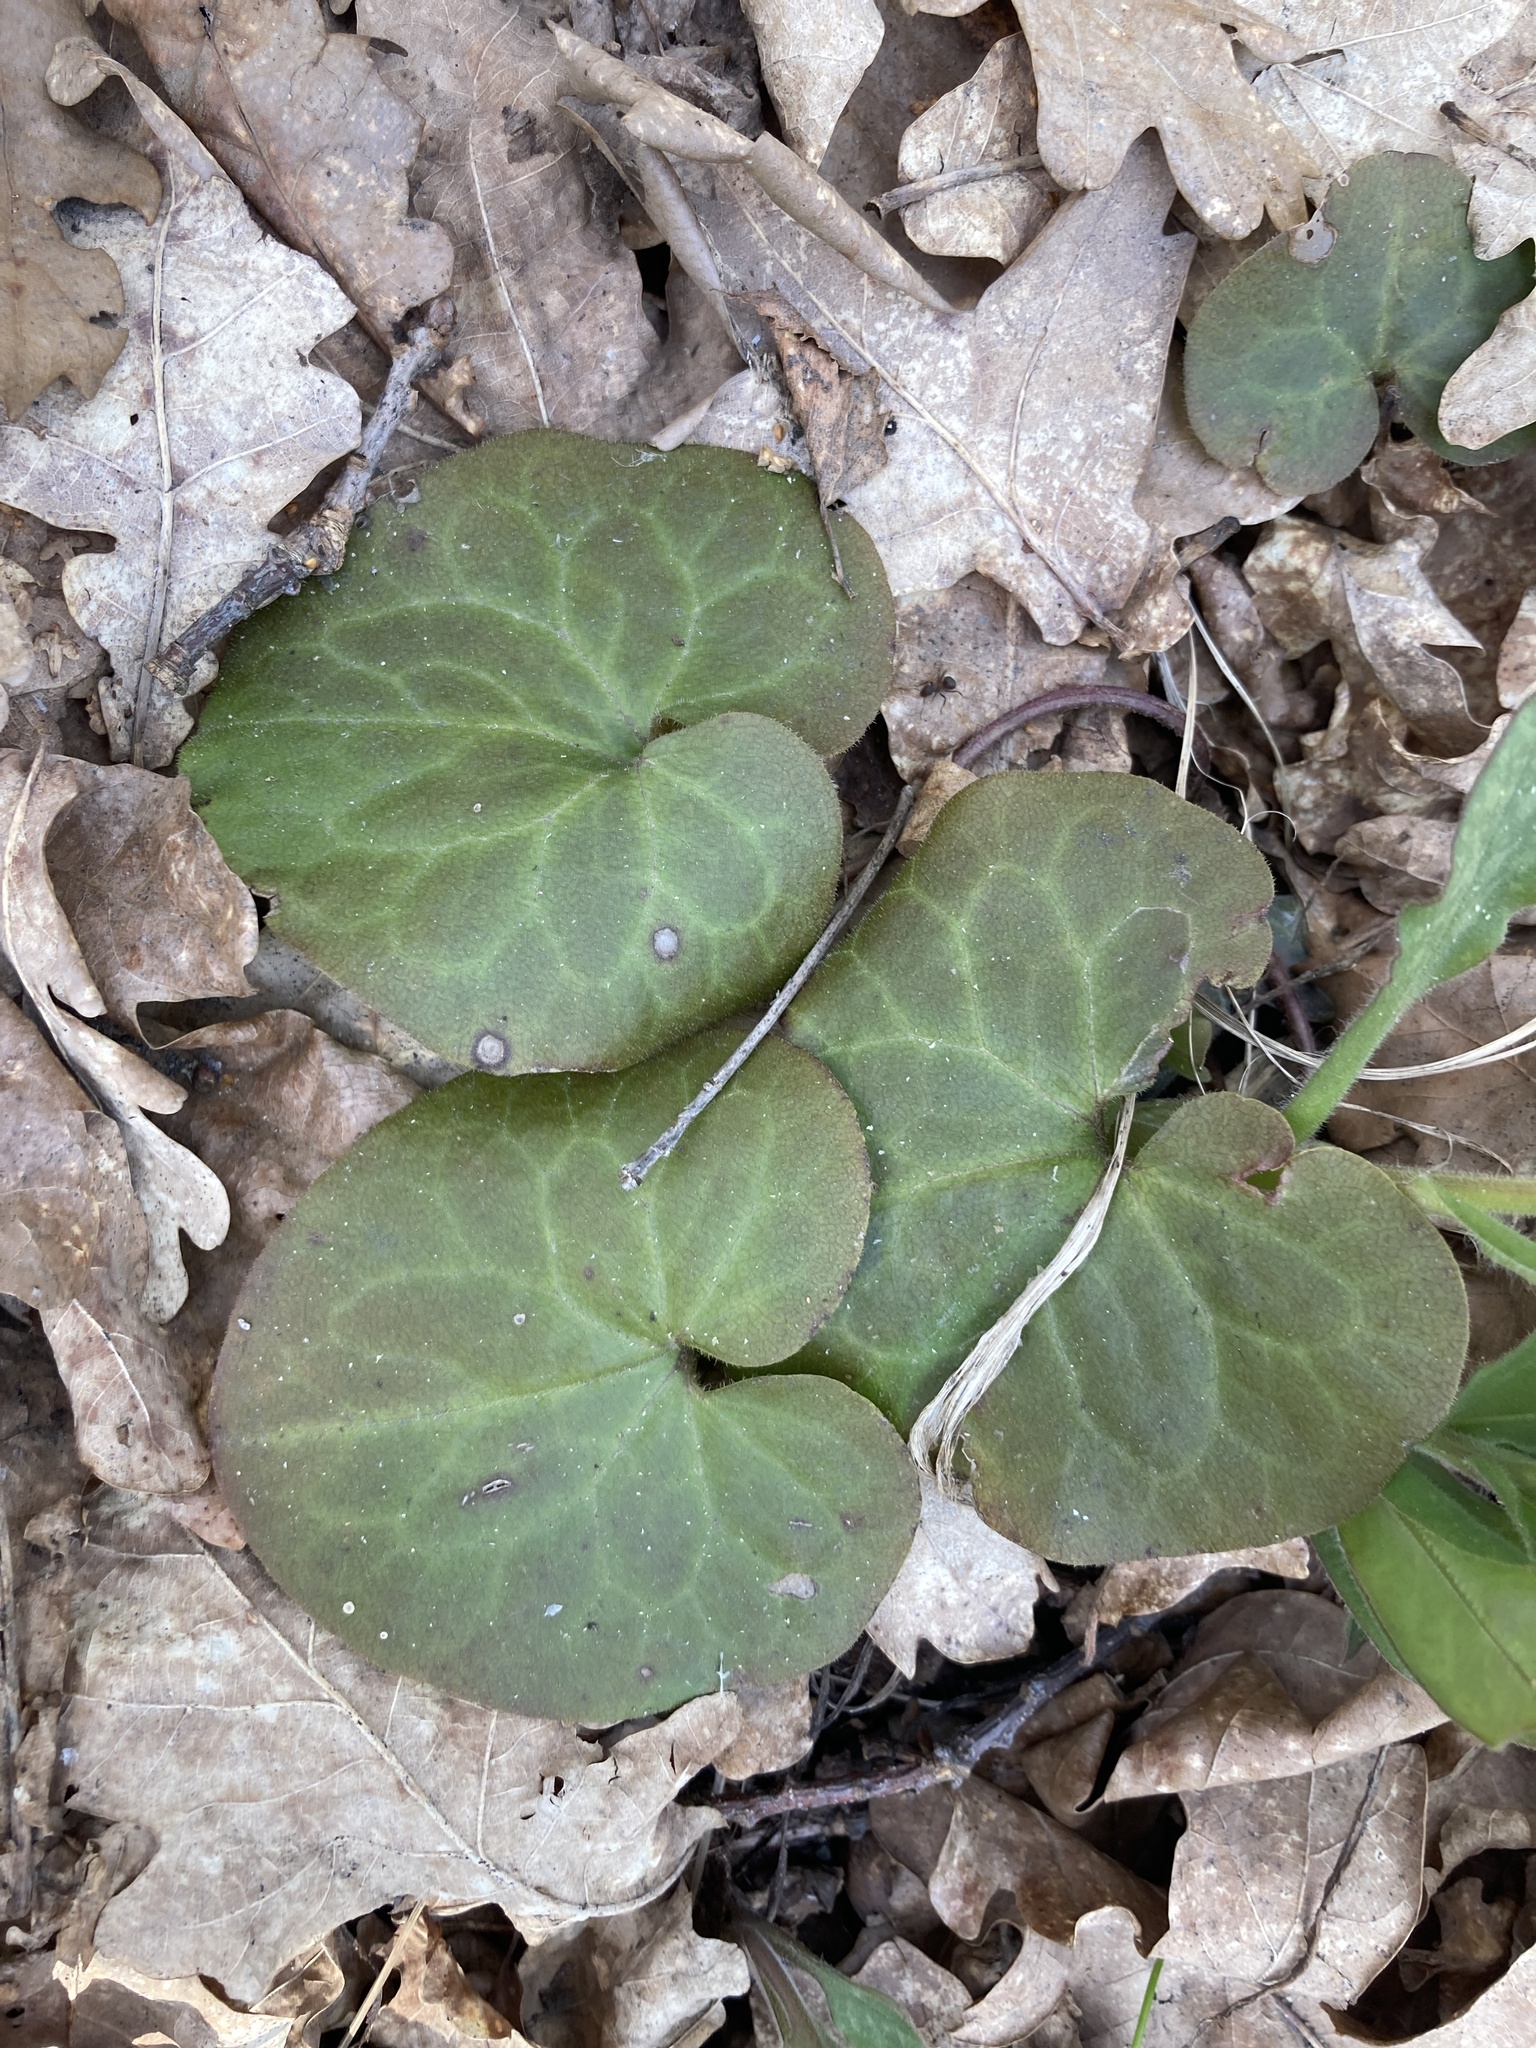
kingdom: Plantae
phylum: Tracheophyta
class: Magnoliopsida
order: Piperales
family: Aristolochiaceae
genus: Asarum
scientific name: Asarum europaeum
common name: Asarabacca
